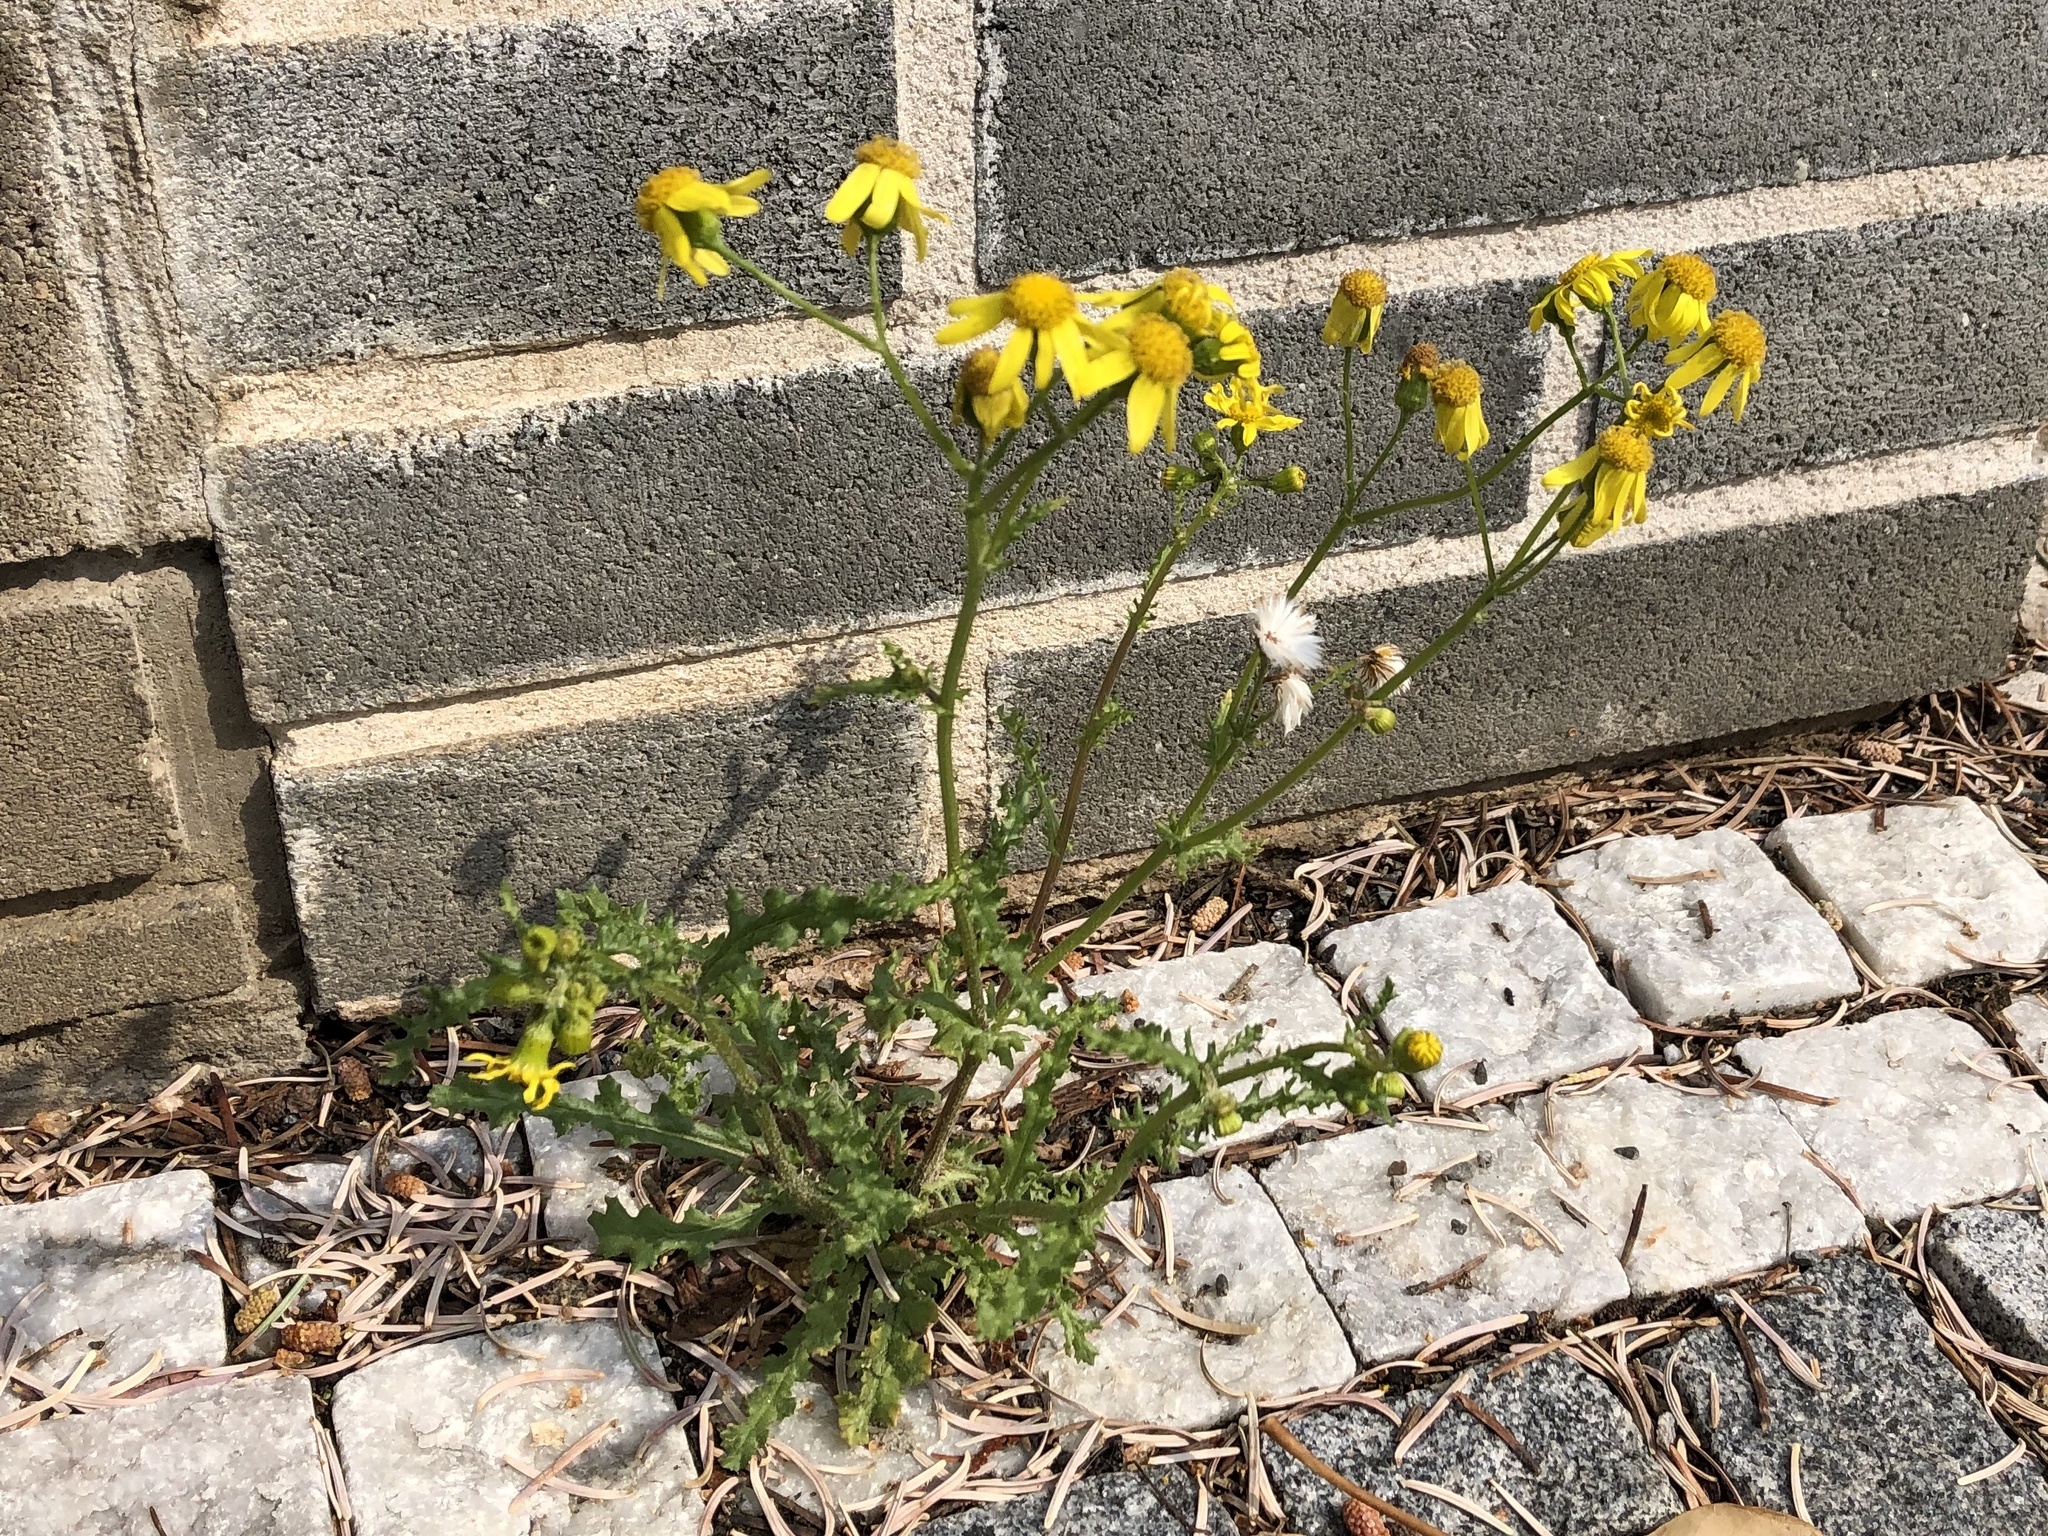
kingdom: Plantae
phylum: Tracheophyta
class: Magnoliopsida
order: Asterales
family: Asteraceae
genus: Senecio
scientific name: Senecio vernalis
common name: Eastern groundsel
